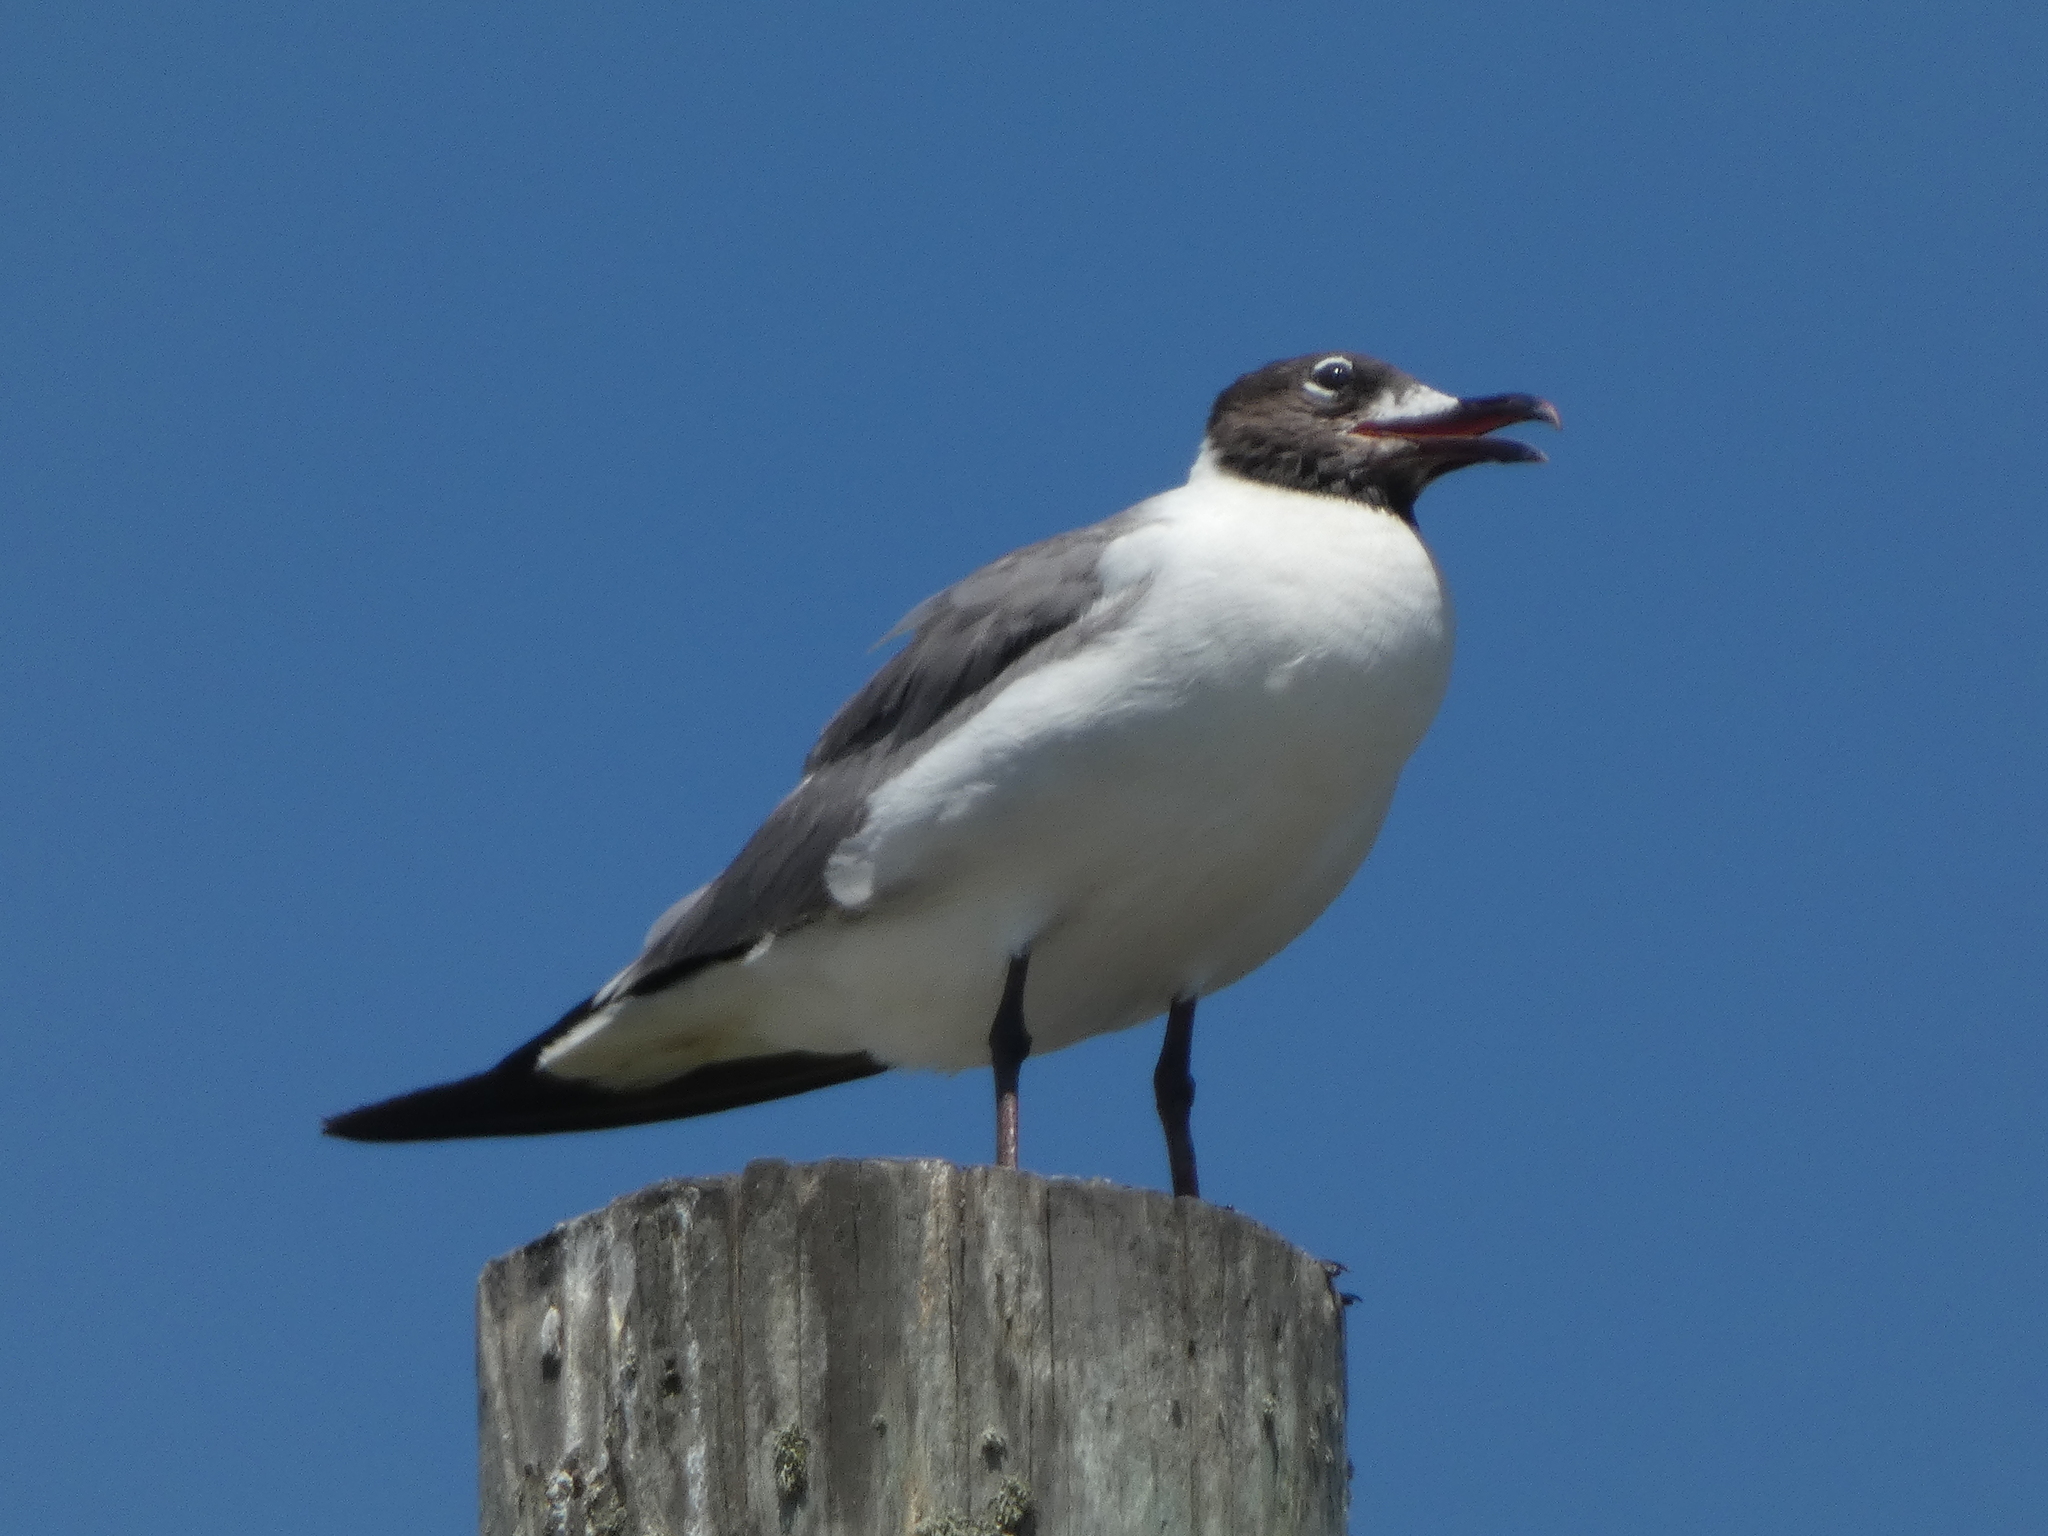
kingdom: Animalia
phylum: Chordata
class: Aves
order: Charadriiformes
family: Laridae
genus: Leucophaeus
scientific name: Leucophaeus atricilla
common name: Laughing gull
